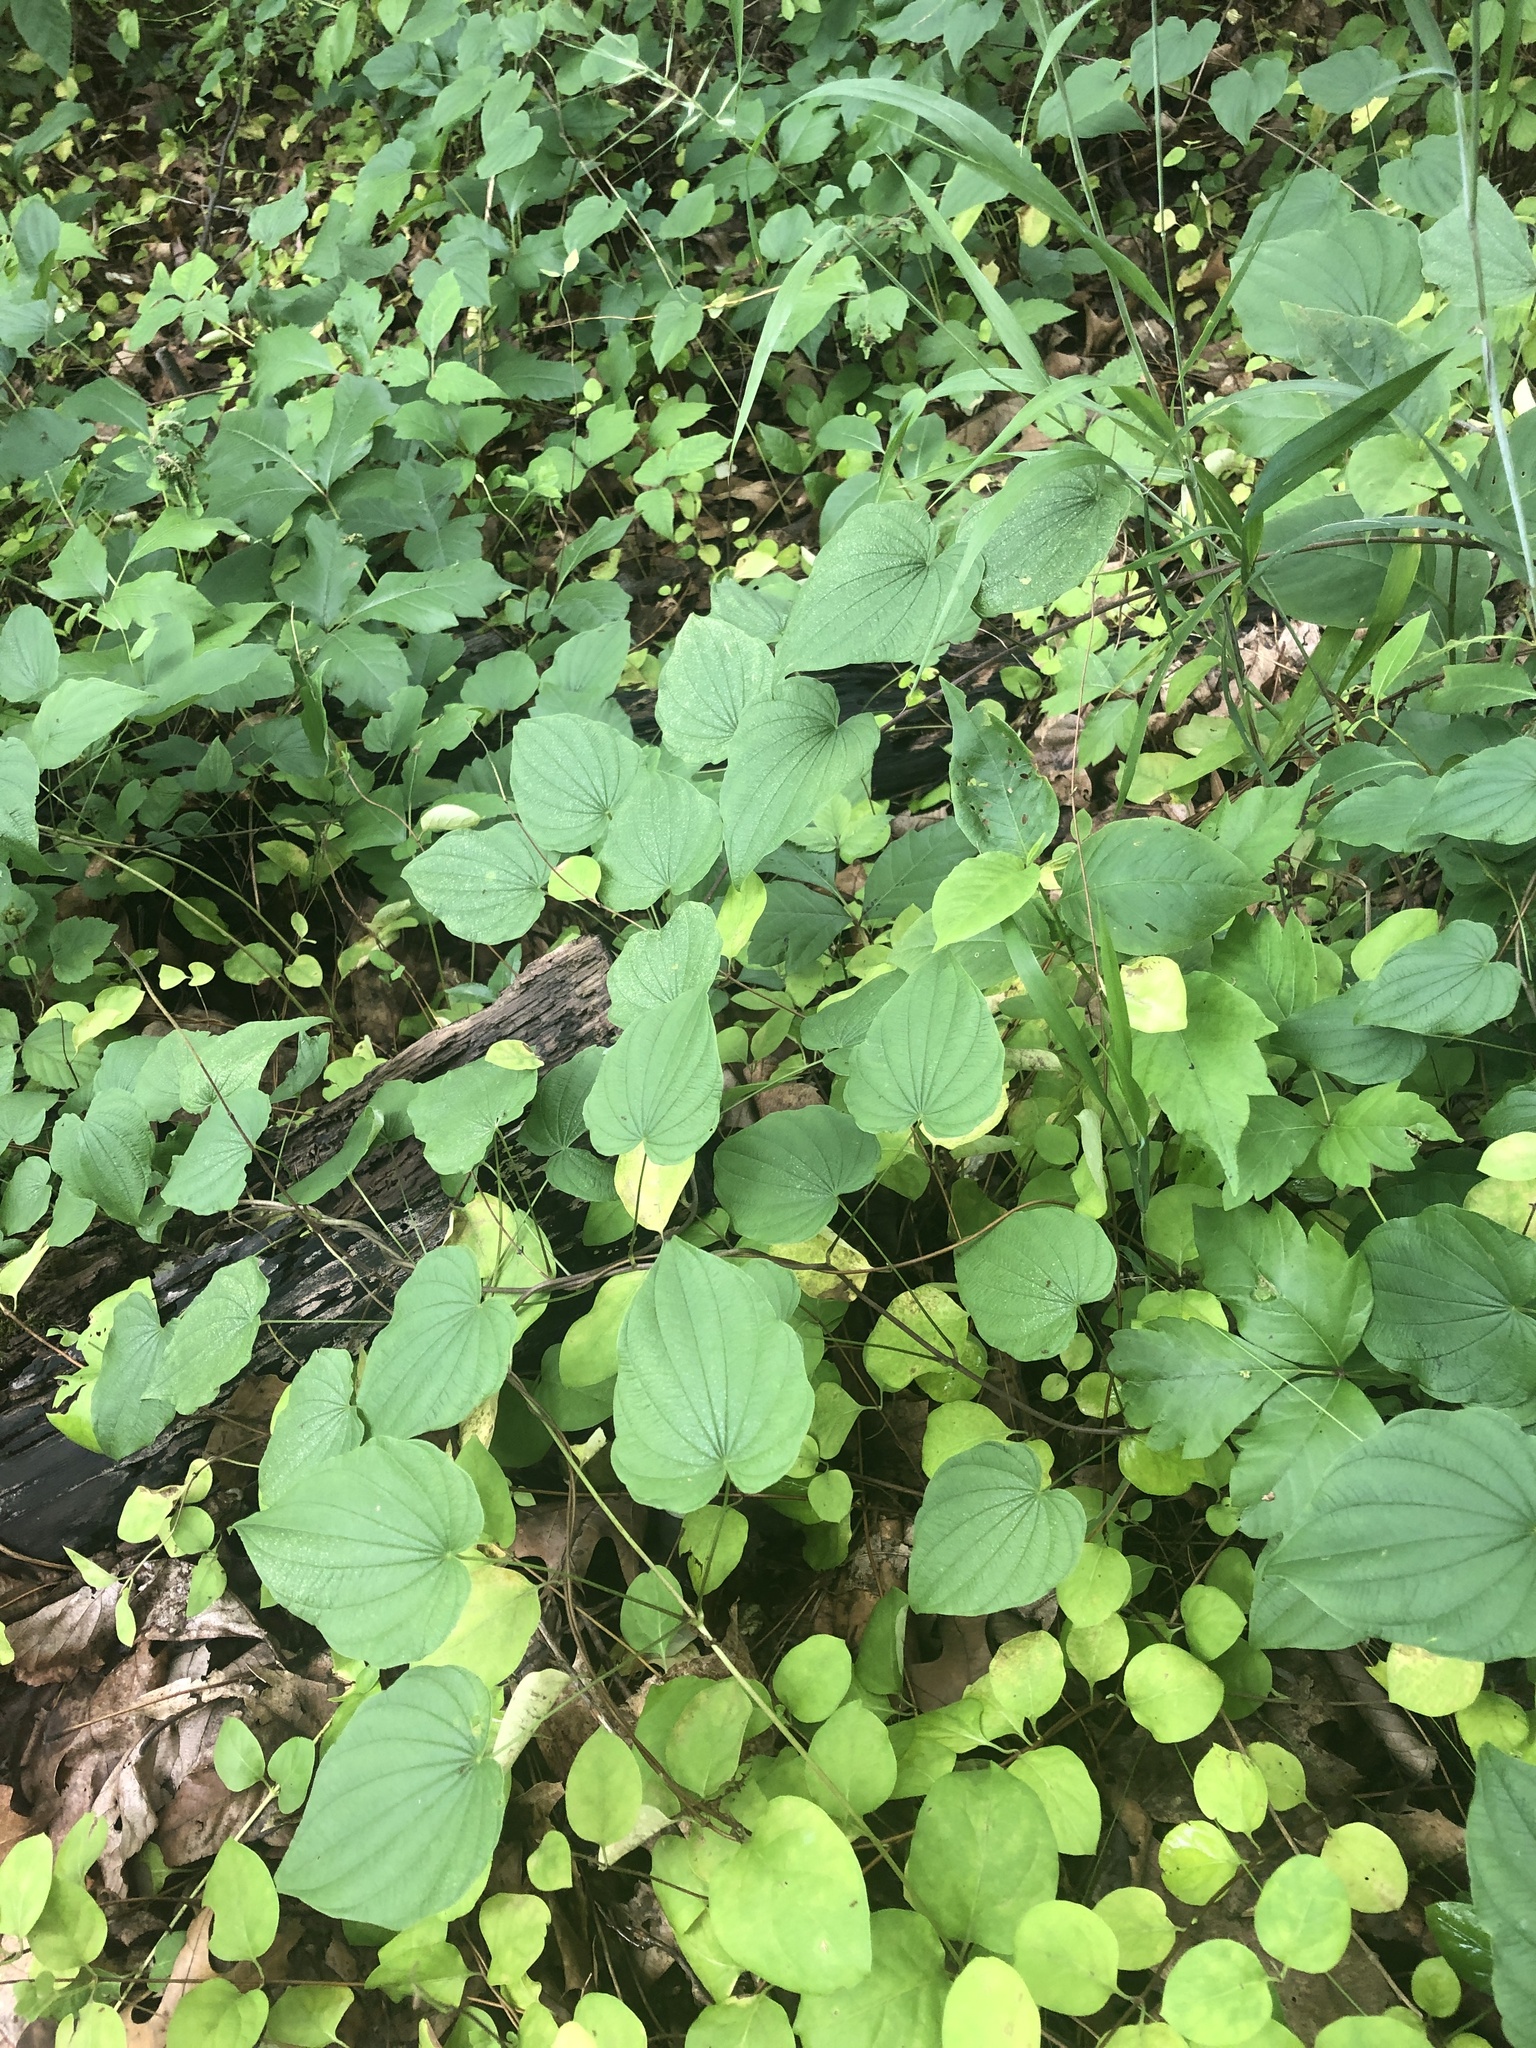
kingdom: Plantae
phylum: Tracheophyta
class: Liliopsida
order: Dioscoreales
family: Dioscoreaceae
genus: Dioscorea
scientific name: Dioscorea villosa
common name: Wild yam
